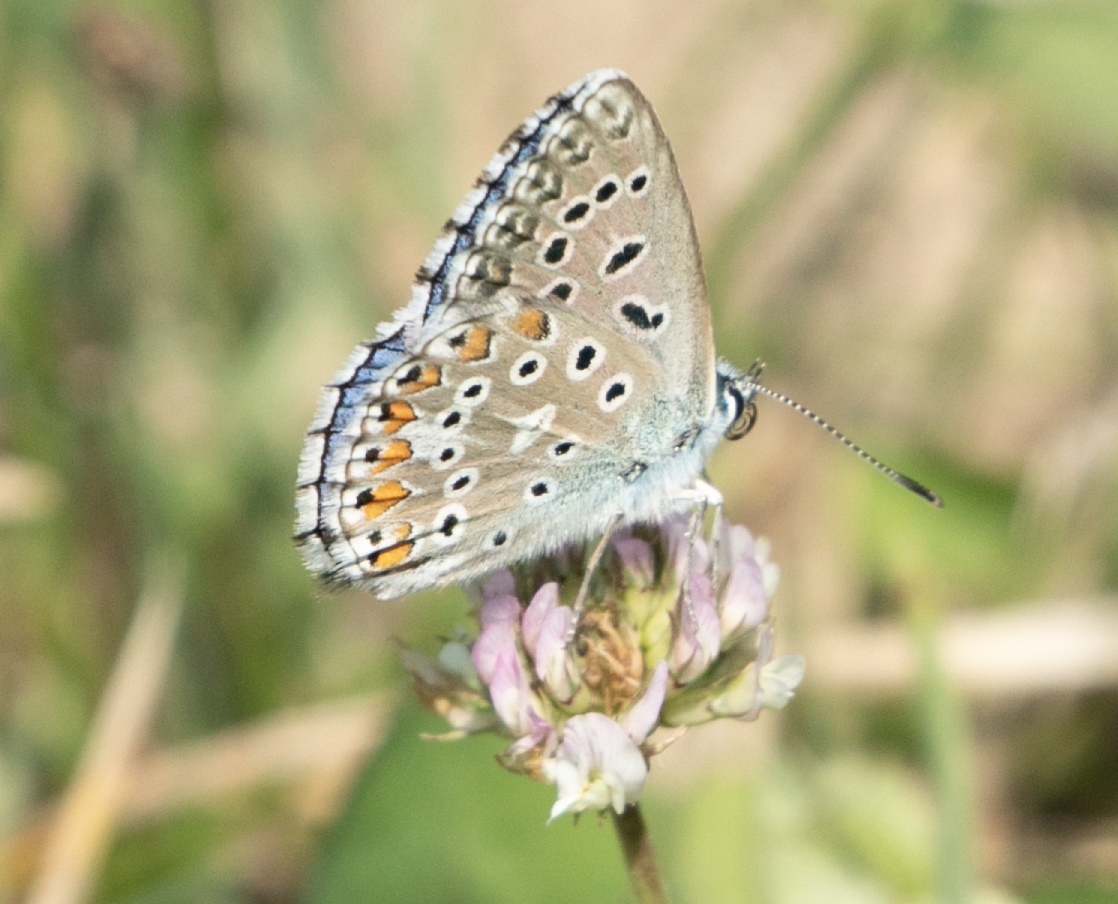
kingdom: Animalia
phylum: Arthropoda
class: Insecta
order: Lepidoptera
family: Lycaenidae
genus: Lysandra
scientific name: Lysandra bellargus
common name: Adonis blue
